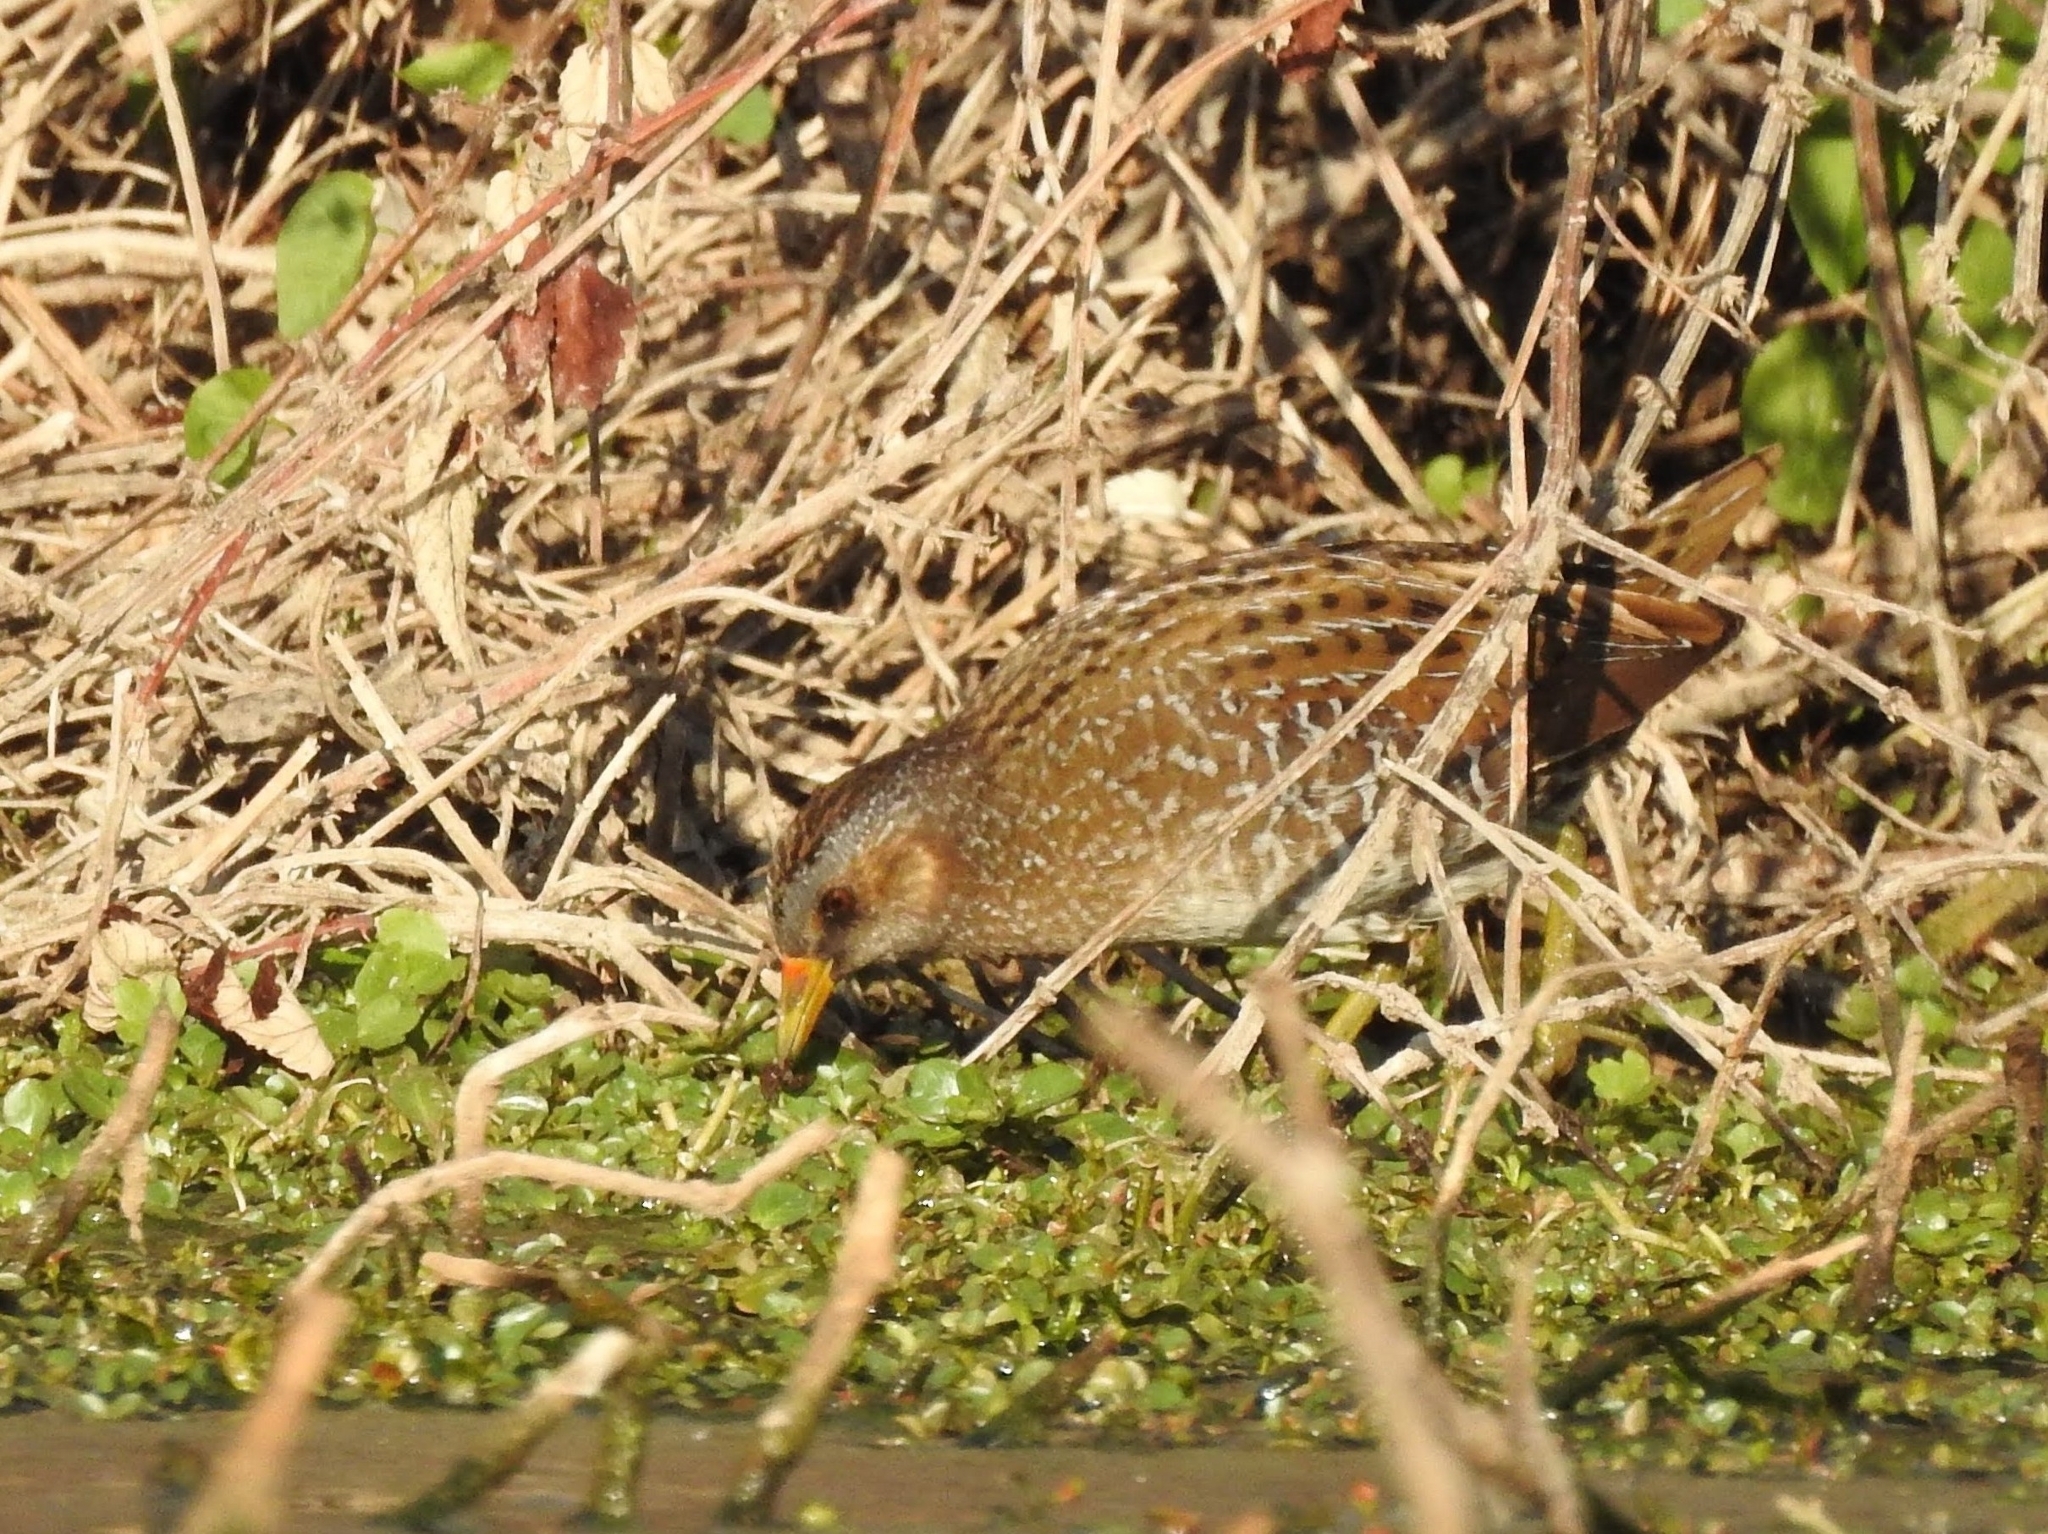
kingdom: Animalia
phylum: Chordata
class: Aves
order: Gruiformes
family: Rallidae
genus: Porzana
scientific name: Porzana porzana
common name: Spotted crake
